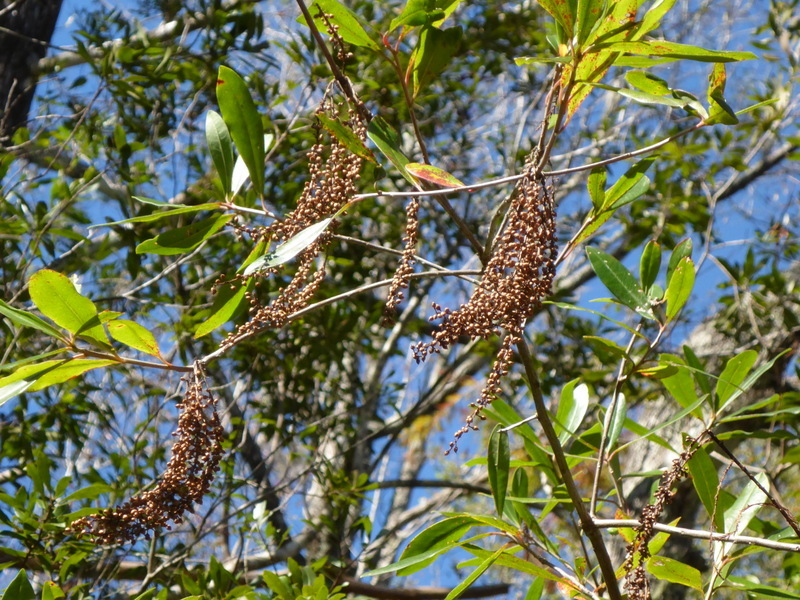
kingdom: Plantae
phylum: Tracheophyta
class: Magnoliopsida
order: Ericales
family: Cyrillaceae
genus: Cyrilla
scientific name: Cyrilla racemiflora
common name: Black titi
